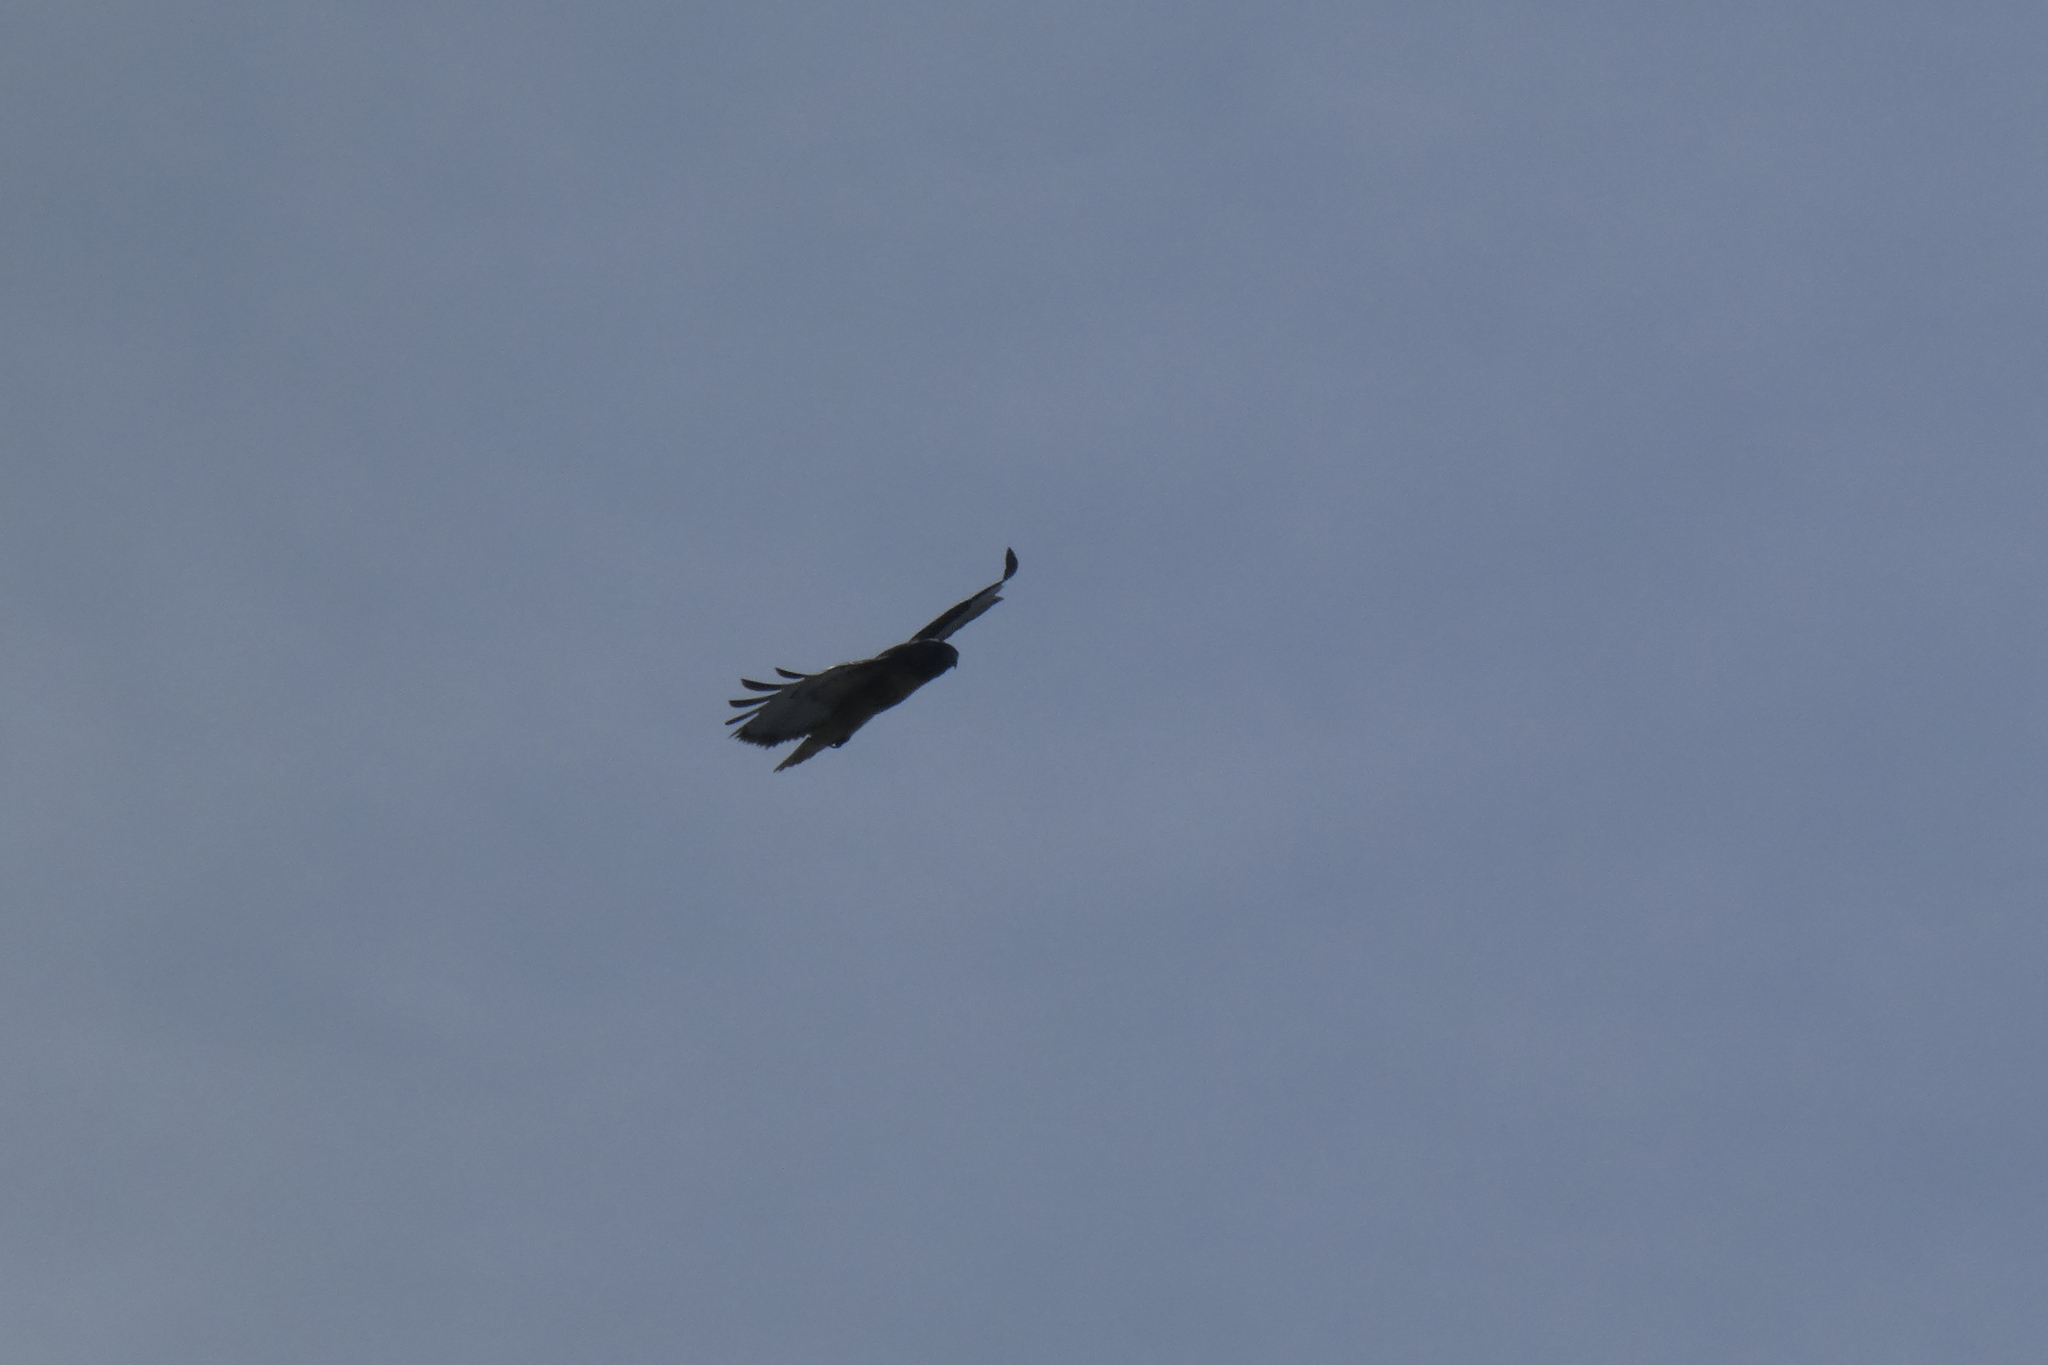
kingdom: Animalia
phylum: Chordata
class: Aves
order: Accipitriformes
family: Accipitridae
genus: Buteo
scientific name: Buteo jamaicensis
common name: Red-tailed hawk
